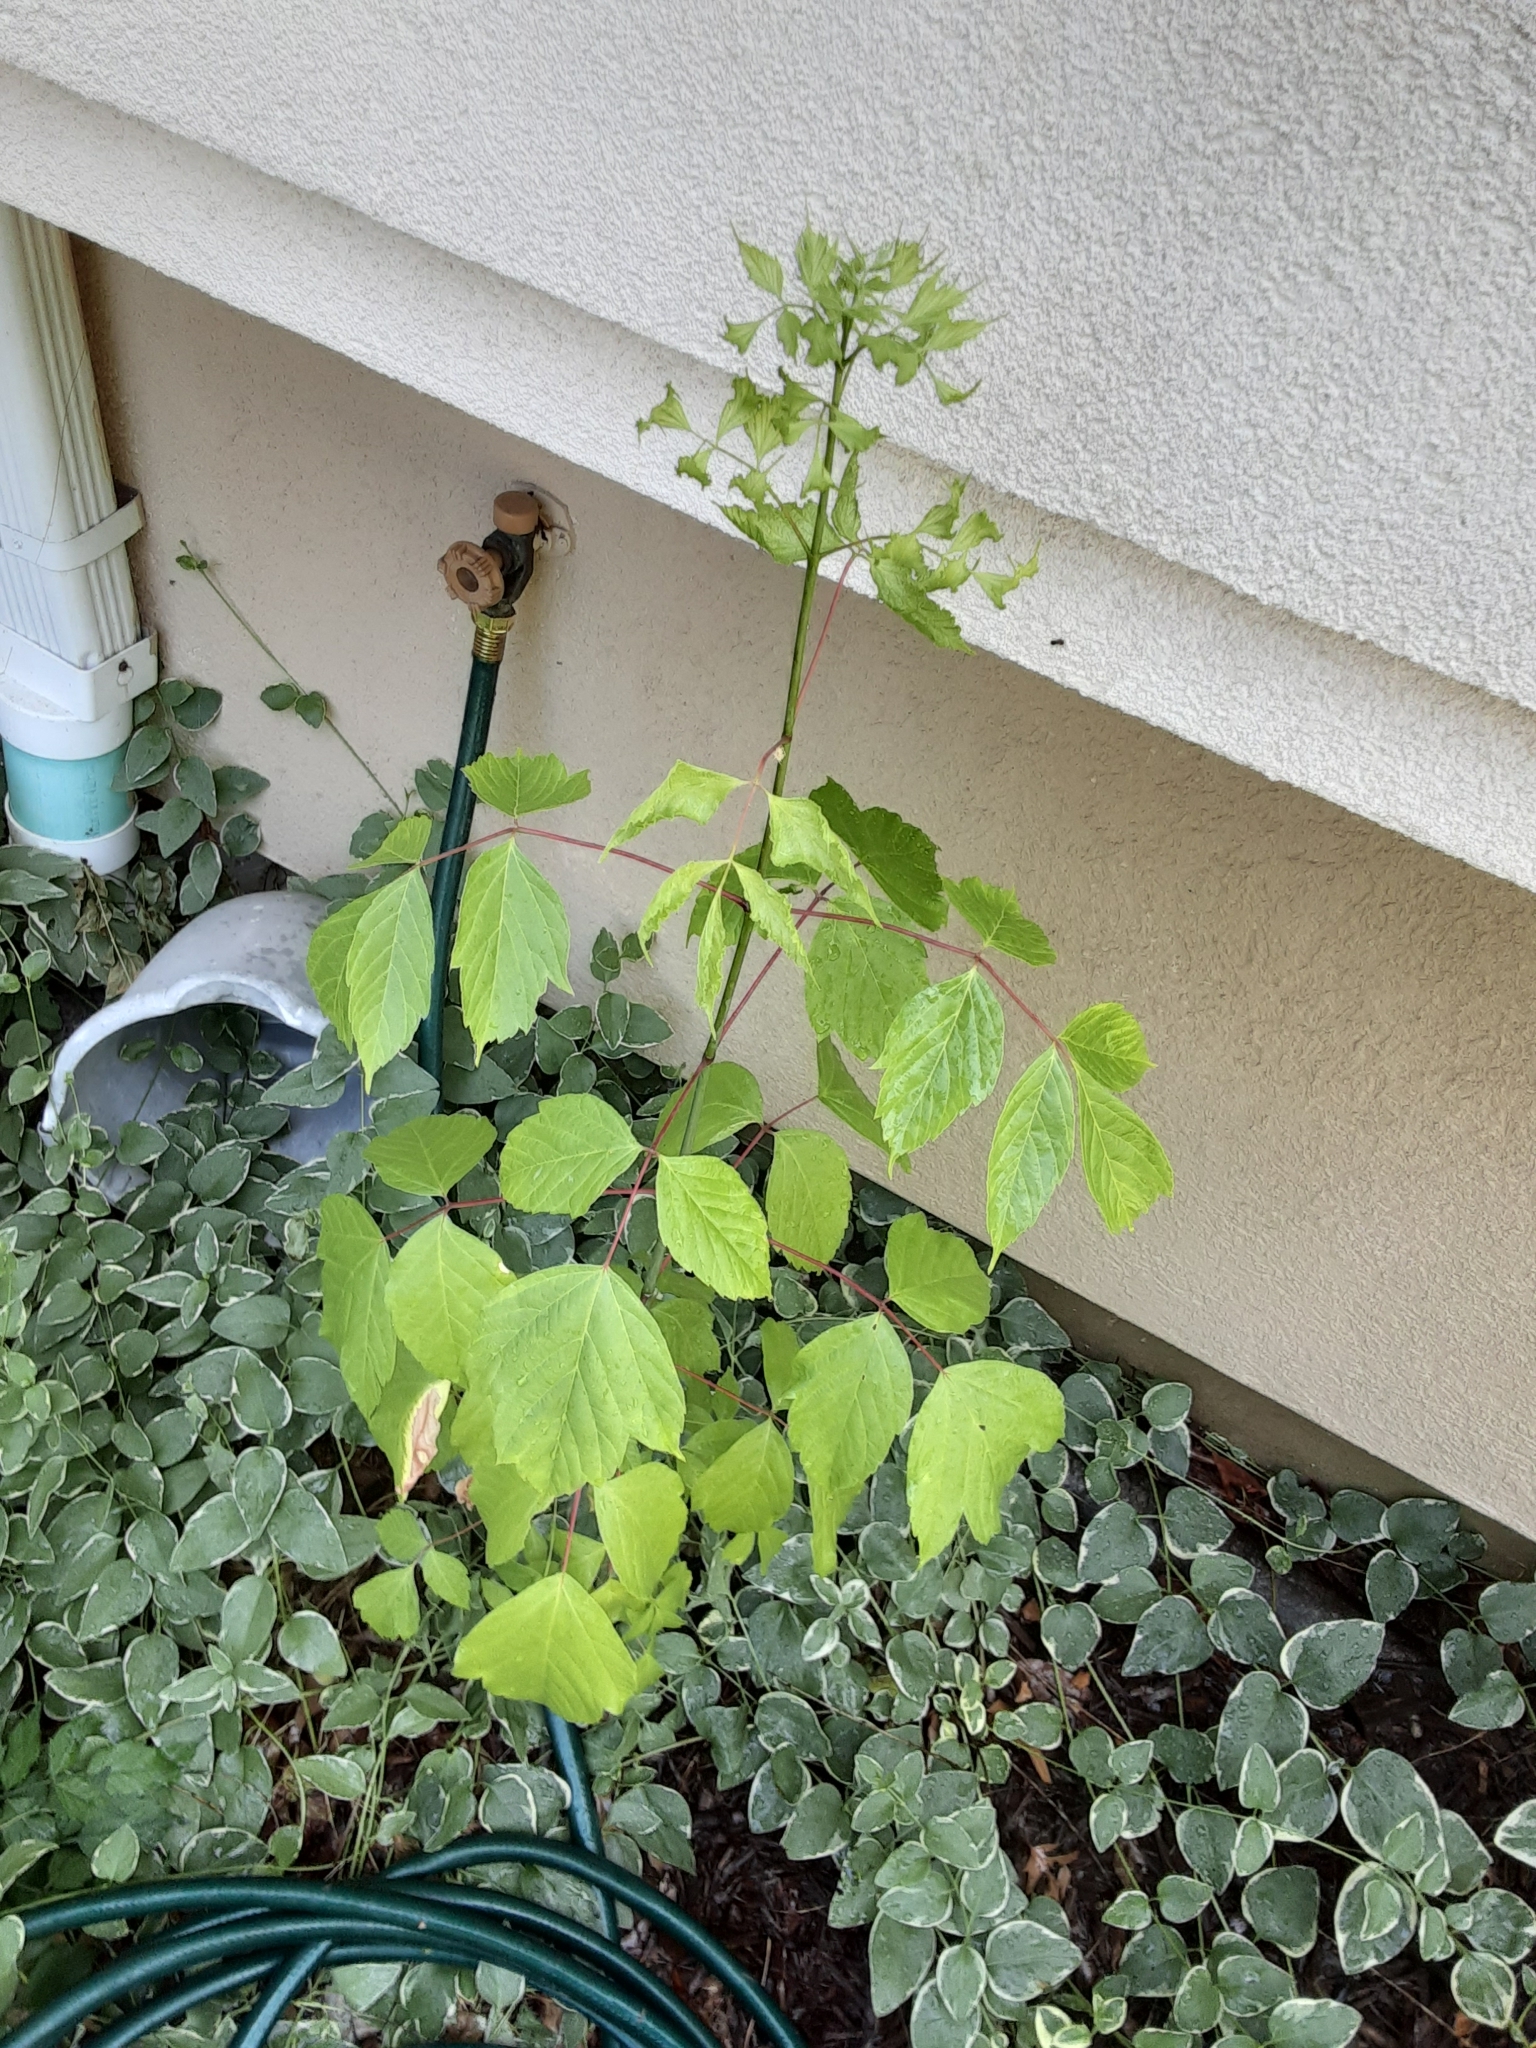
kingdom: Plantae
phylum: Tracheophyta
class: Magnoliopsida
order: Sapindales
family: Sapindaceae
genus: Acer
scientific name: Acer negundo
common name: Ashleaf maple
